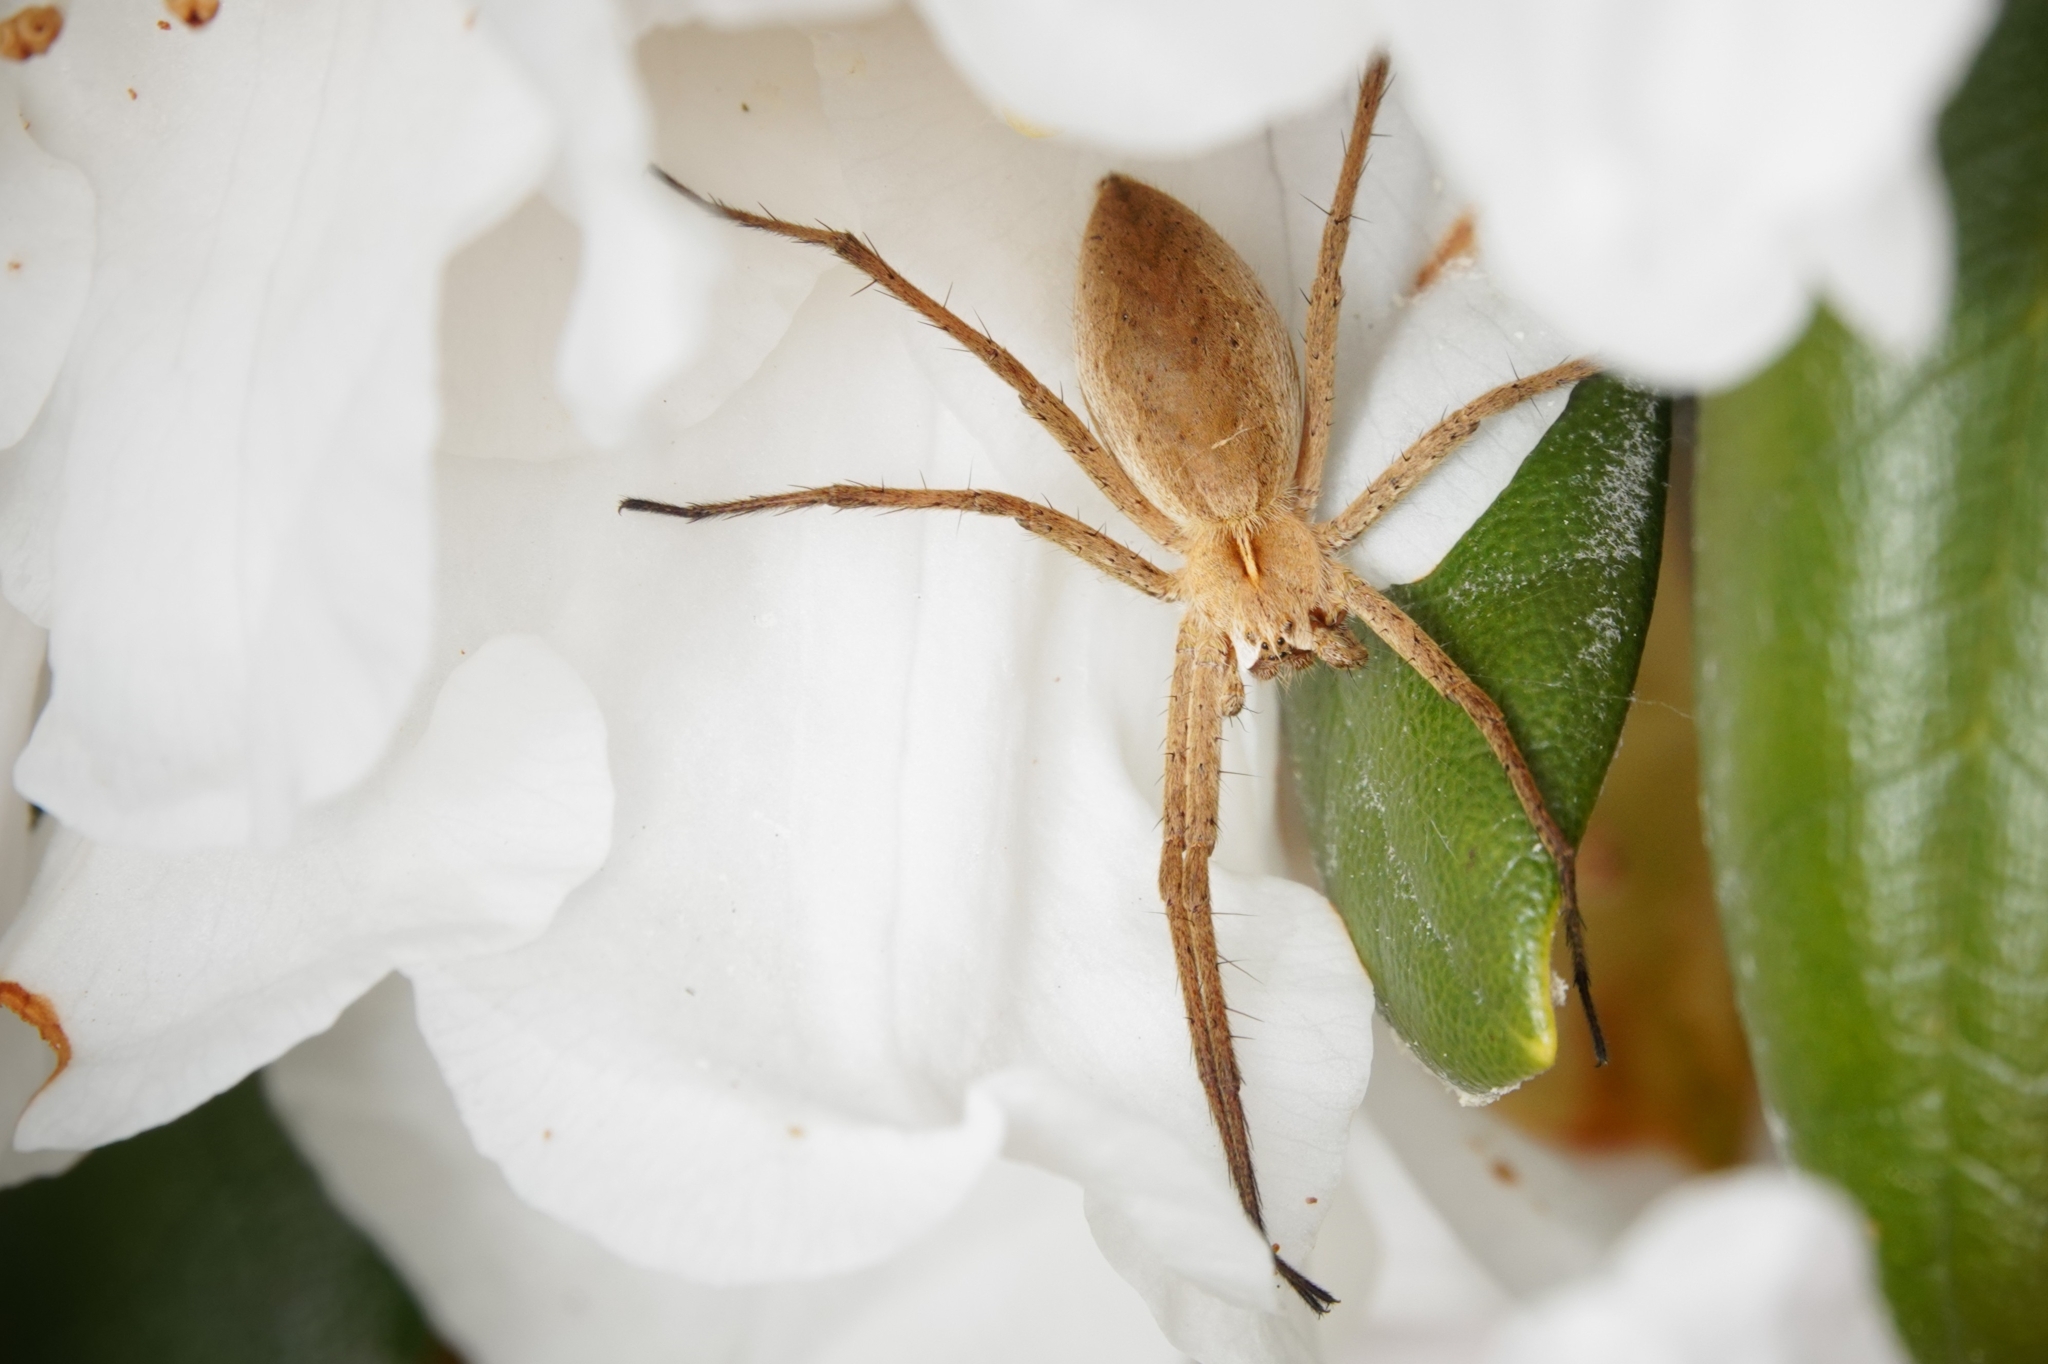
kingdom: Animalia
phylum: Arthropoda
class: Arachnida
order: Araneae
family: Pisauridae
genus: Pisaura
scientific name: Pisaura mirabilis
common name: Tent spider
